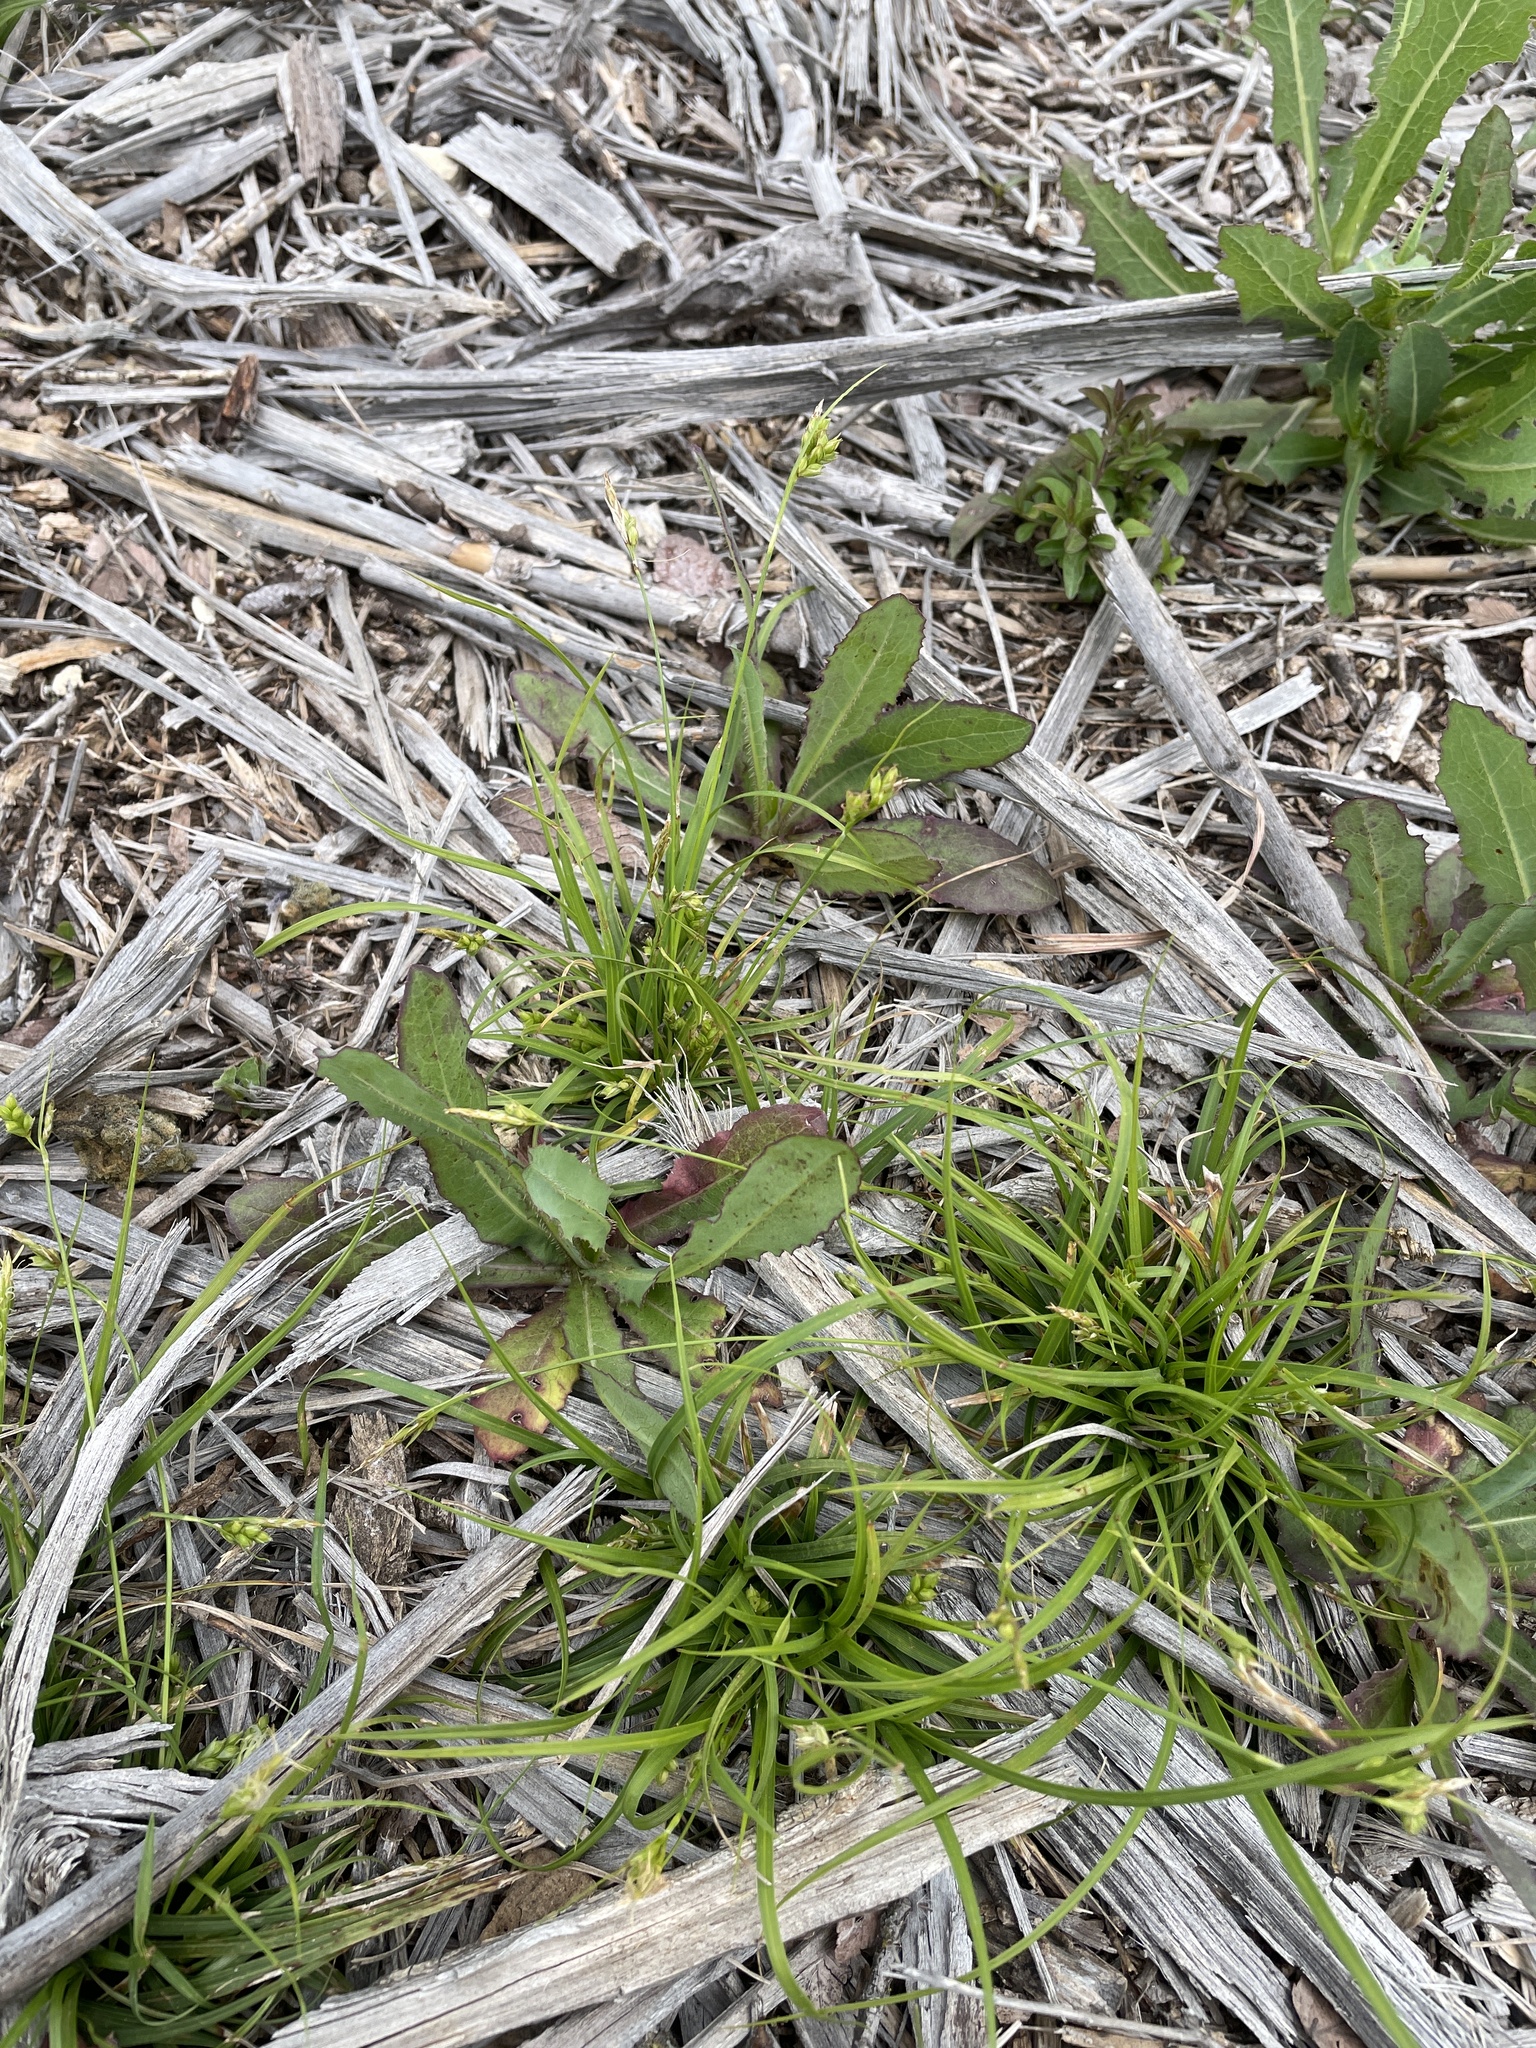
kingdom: Plantae
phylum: Tracheophyta
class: Liliopsida
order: Poales
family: Cyperaceae
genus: Carex
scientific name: Carex planostachys
